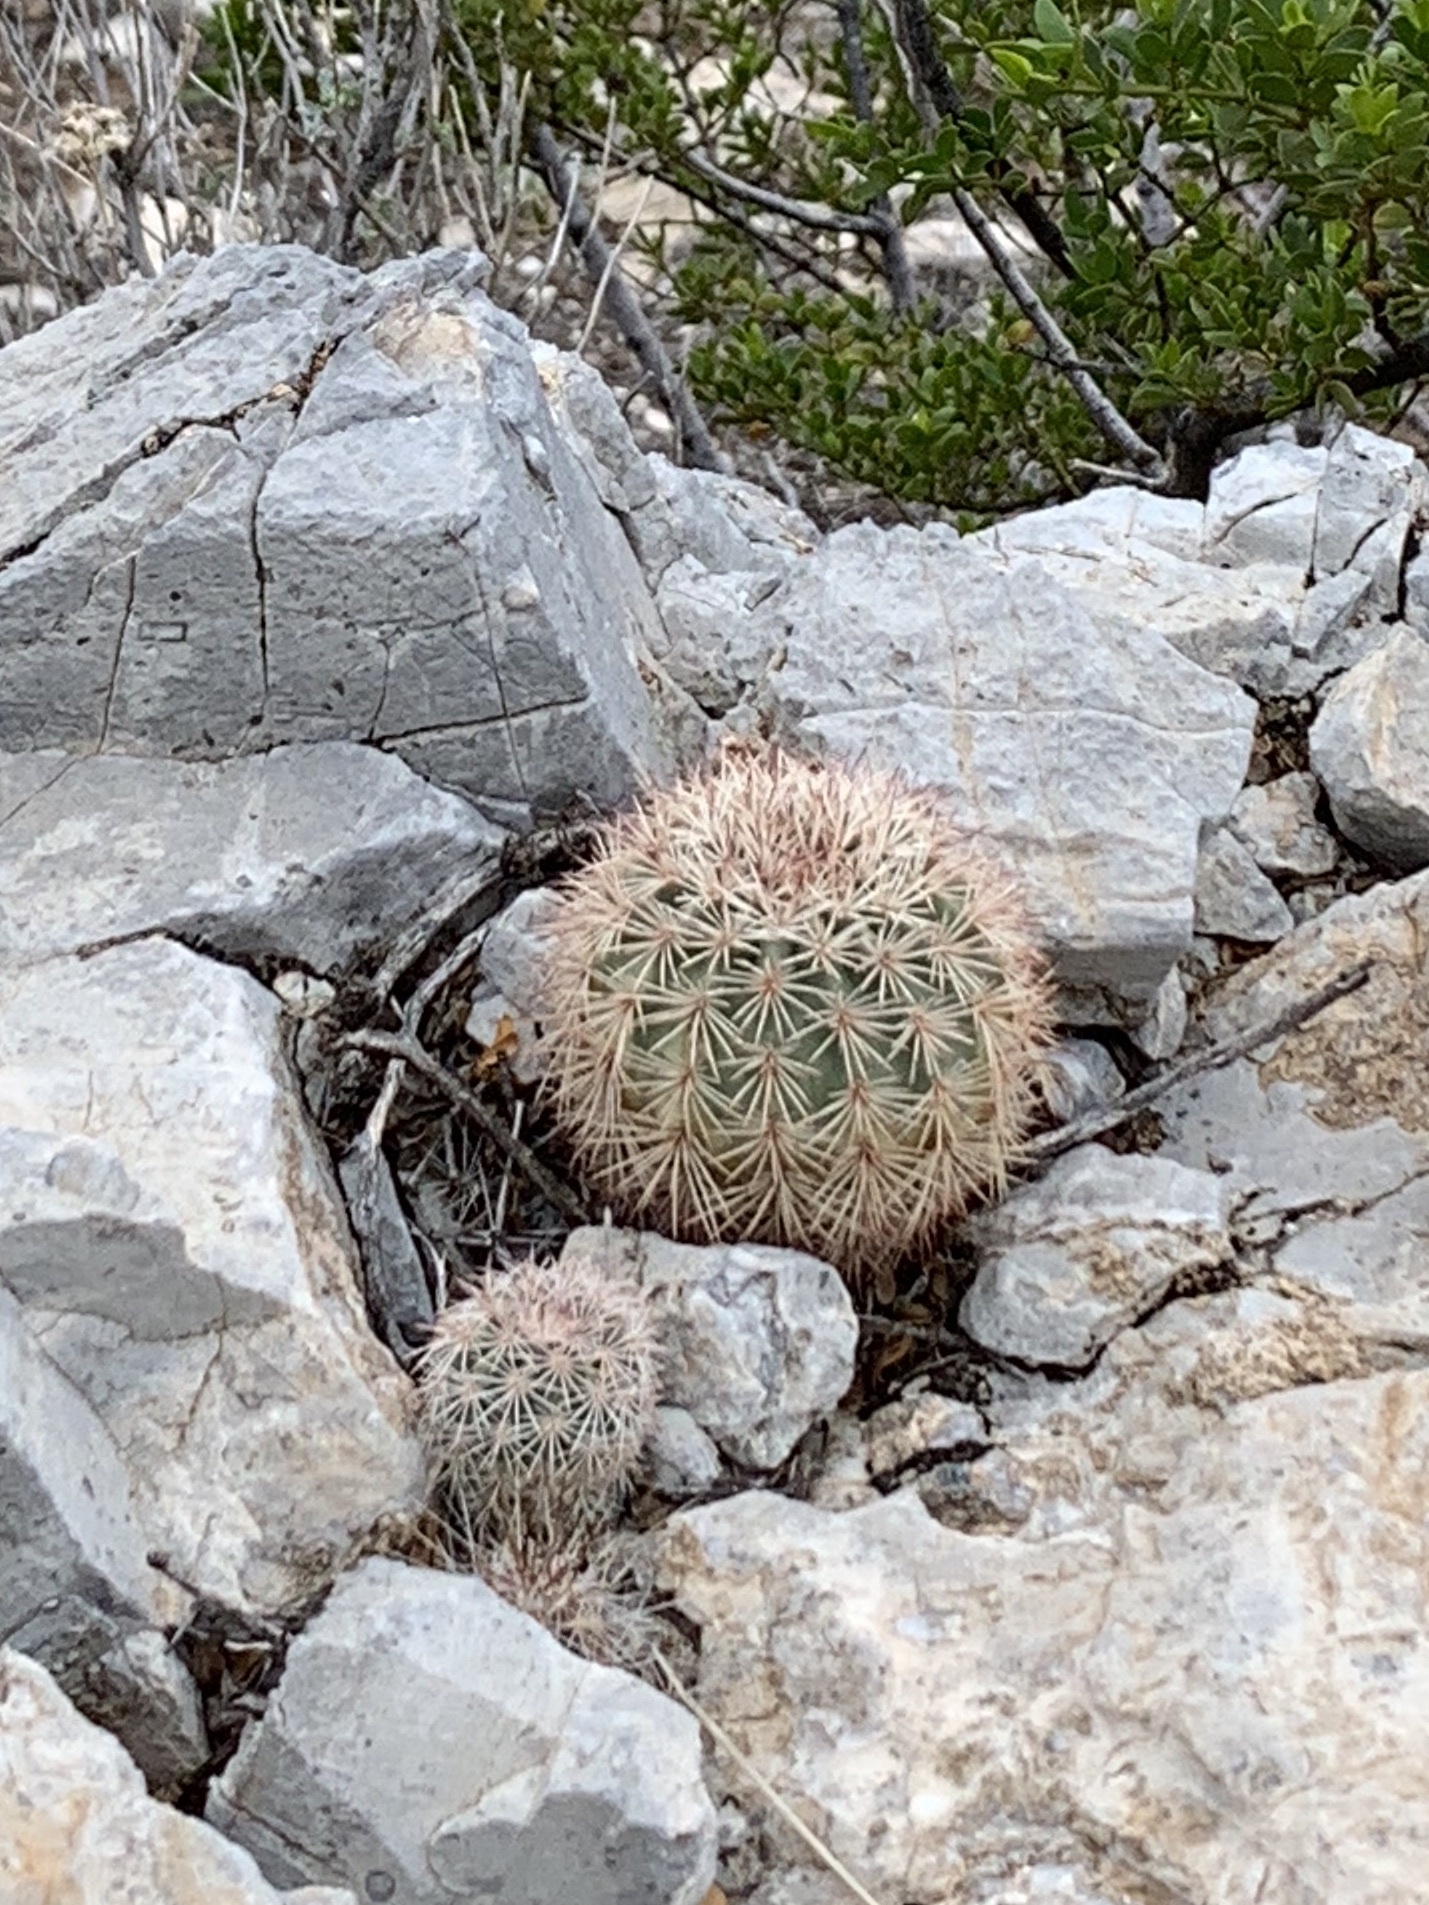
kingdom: Plantae
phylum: Tracheophyta
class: Magnoliopsida
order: Caryophyllales
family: Cactaceae
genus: Echinocereus
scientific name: Echinocereus dasyacanthus
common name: Spiny hedgehog cactus
